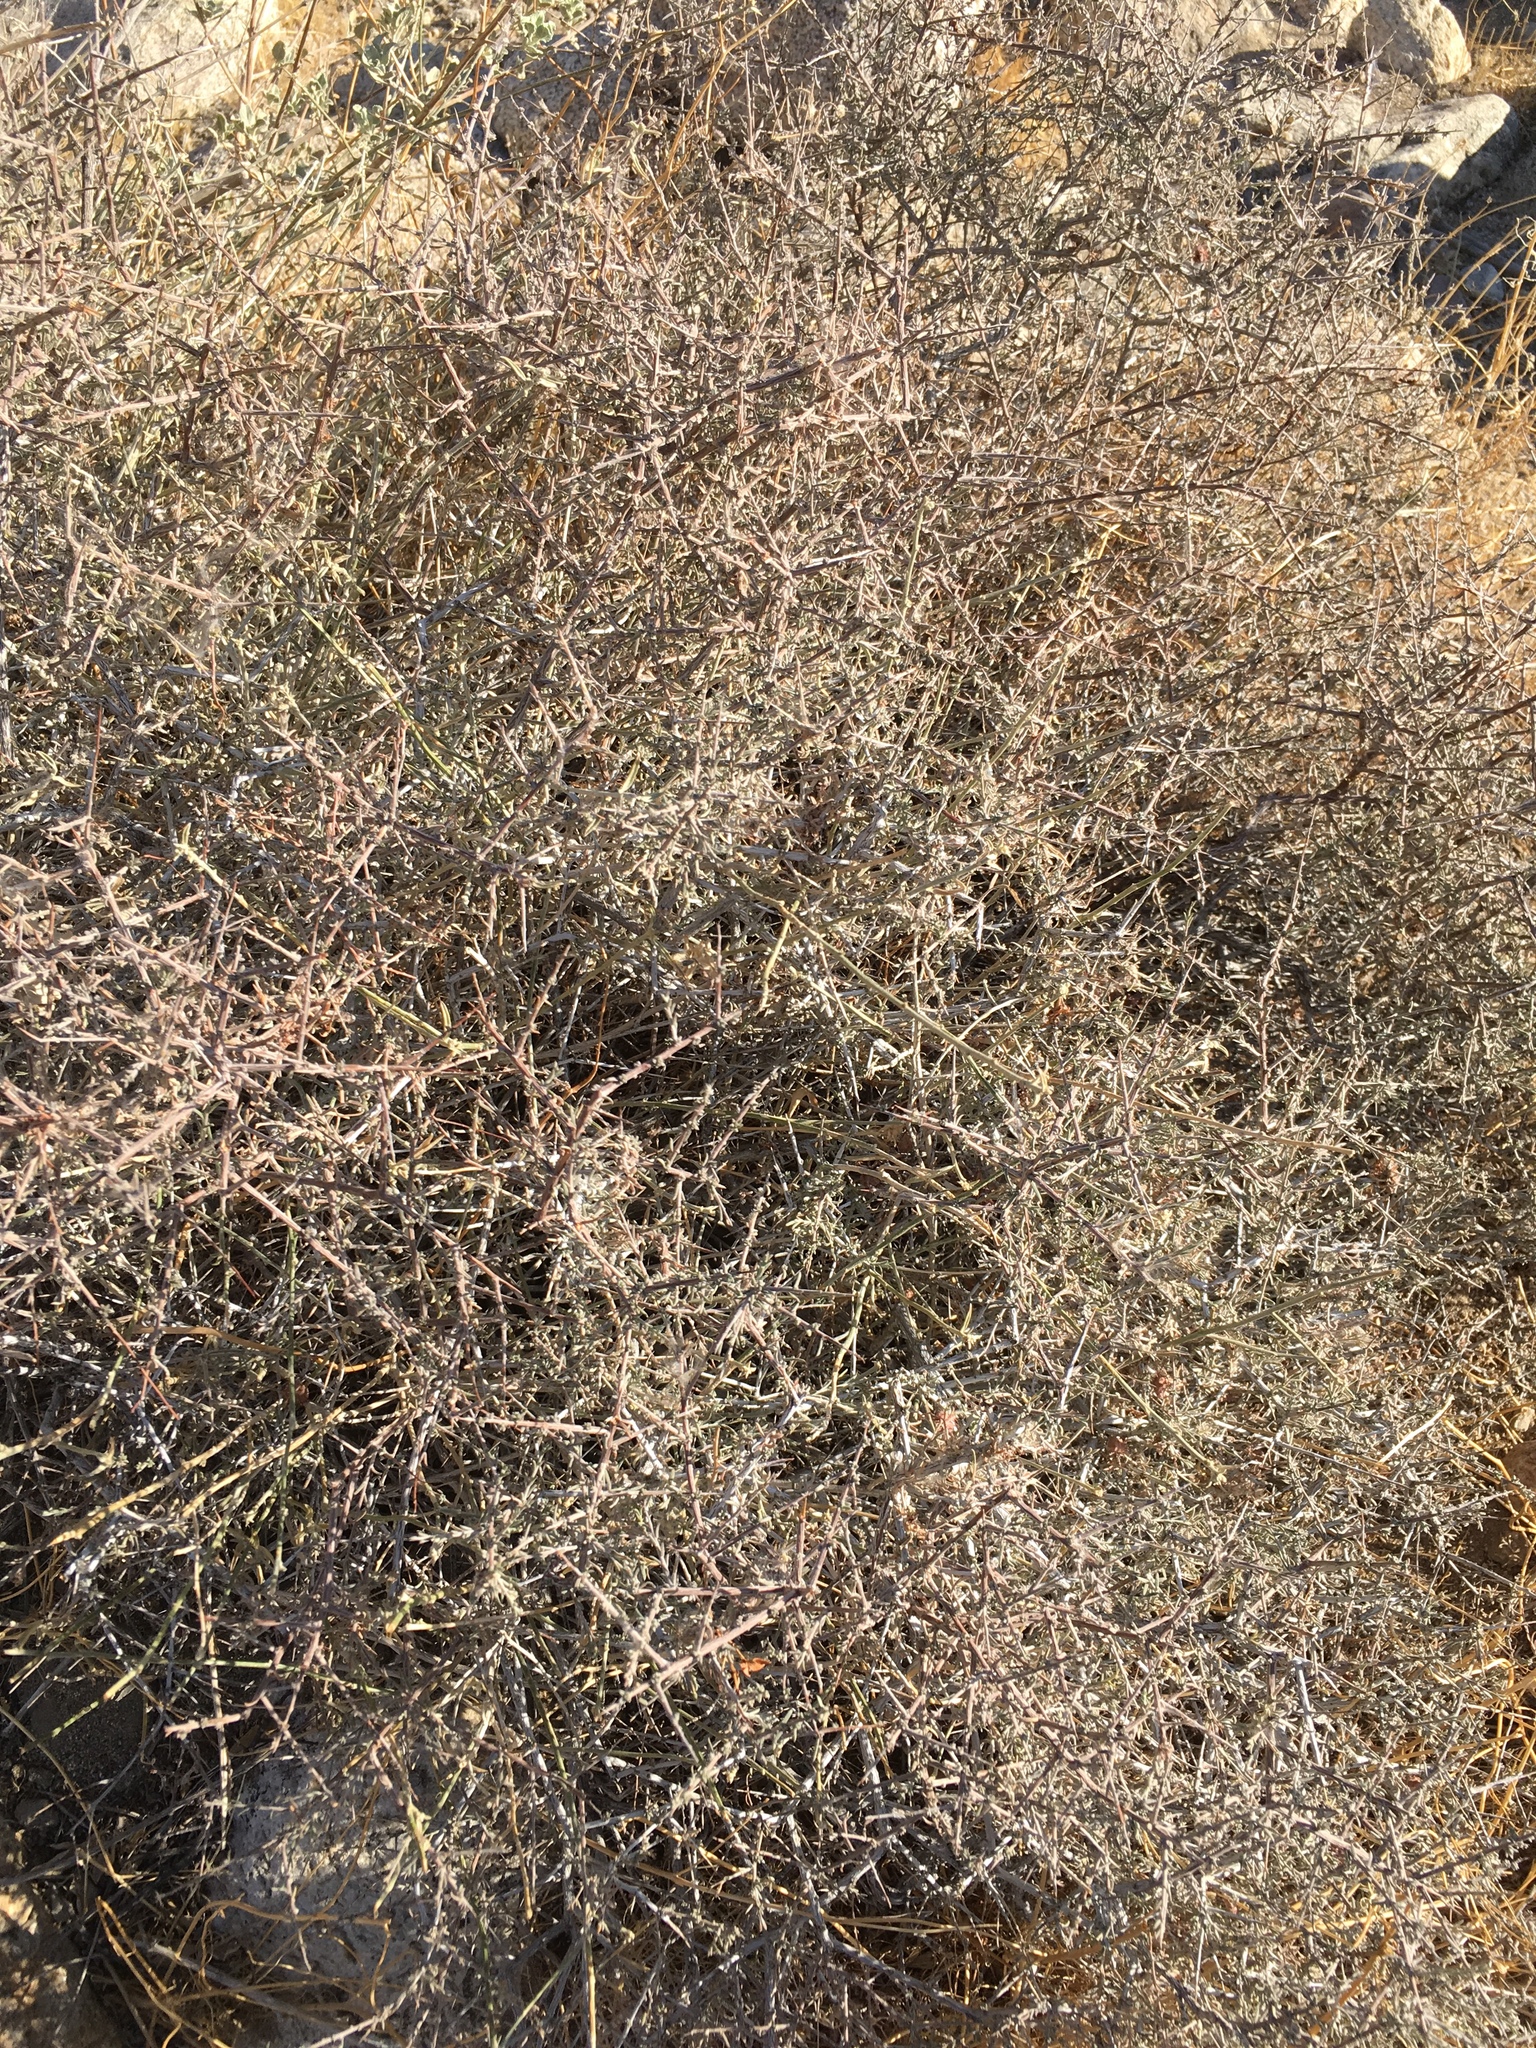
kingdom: Plantae
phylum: Tracheophyta
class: Magnoliopsida
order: Zygophyllales
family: Krameriaceae
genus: Krameria
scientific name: Krameria erecta
